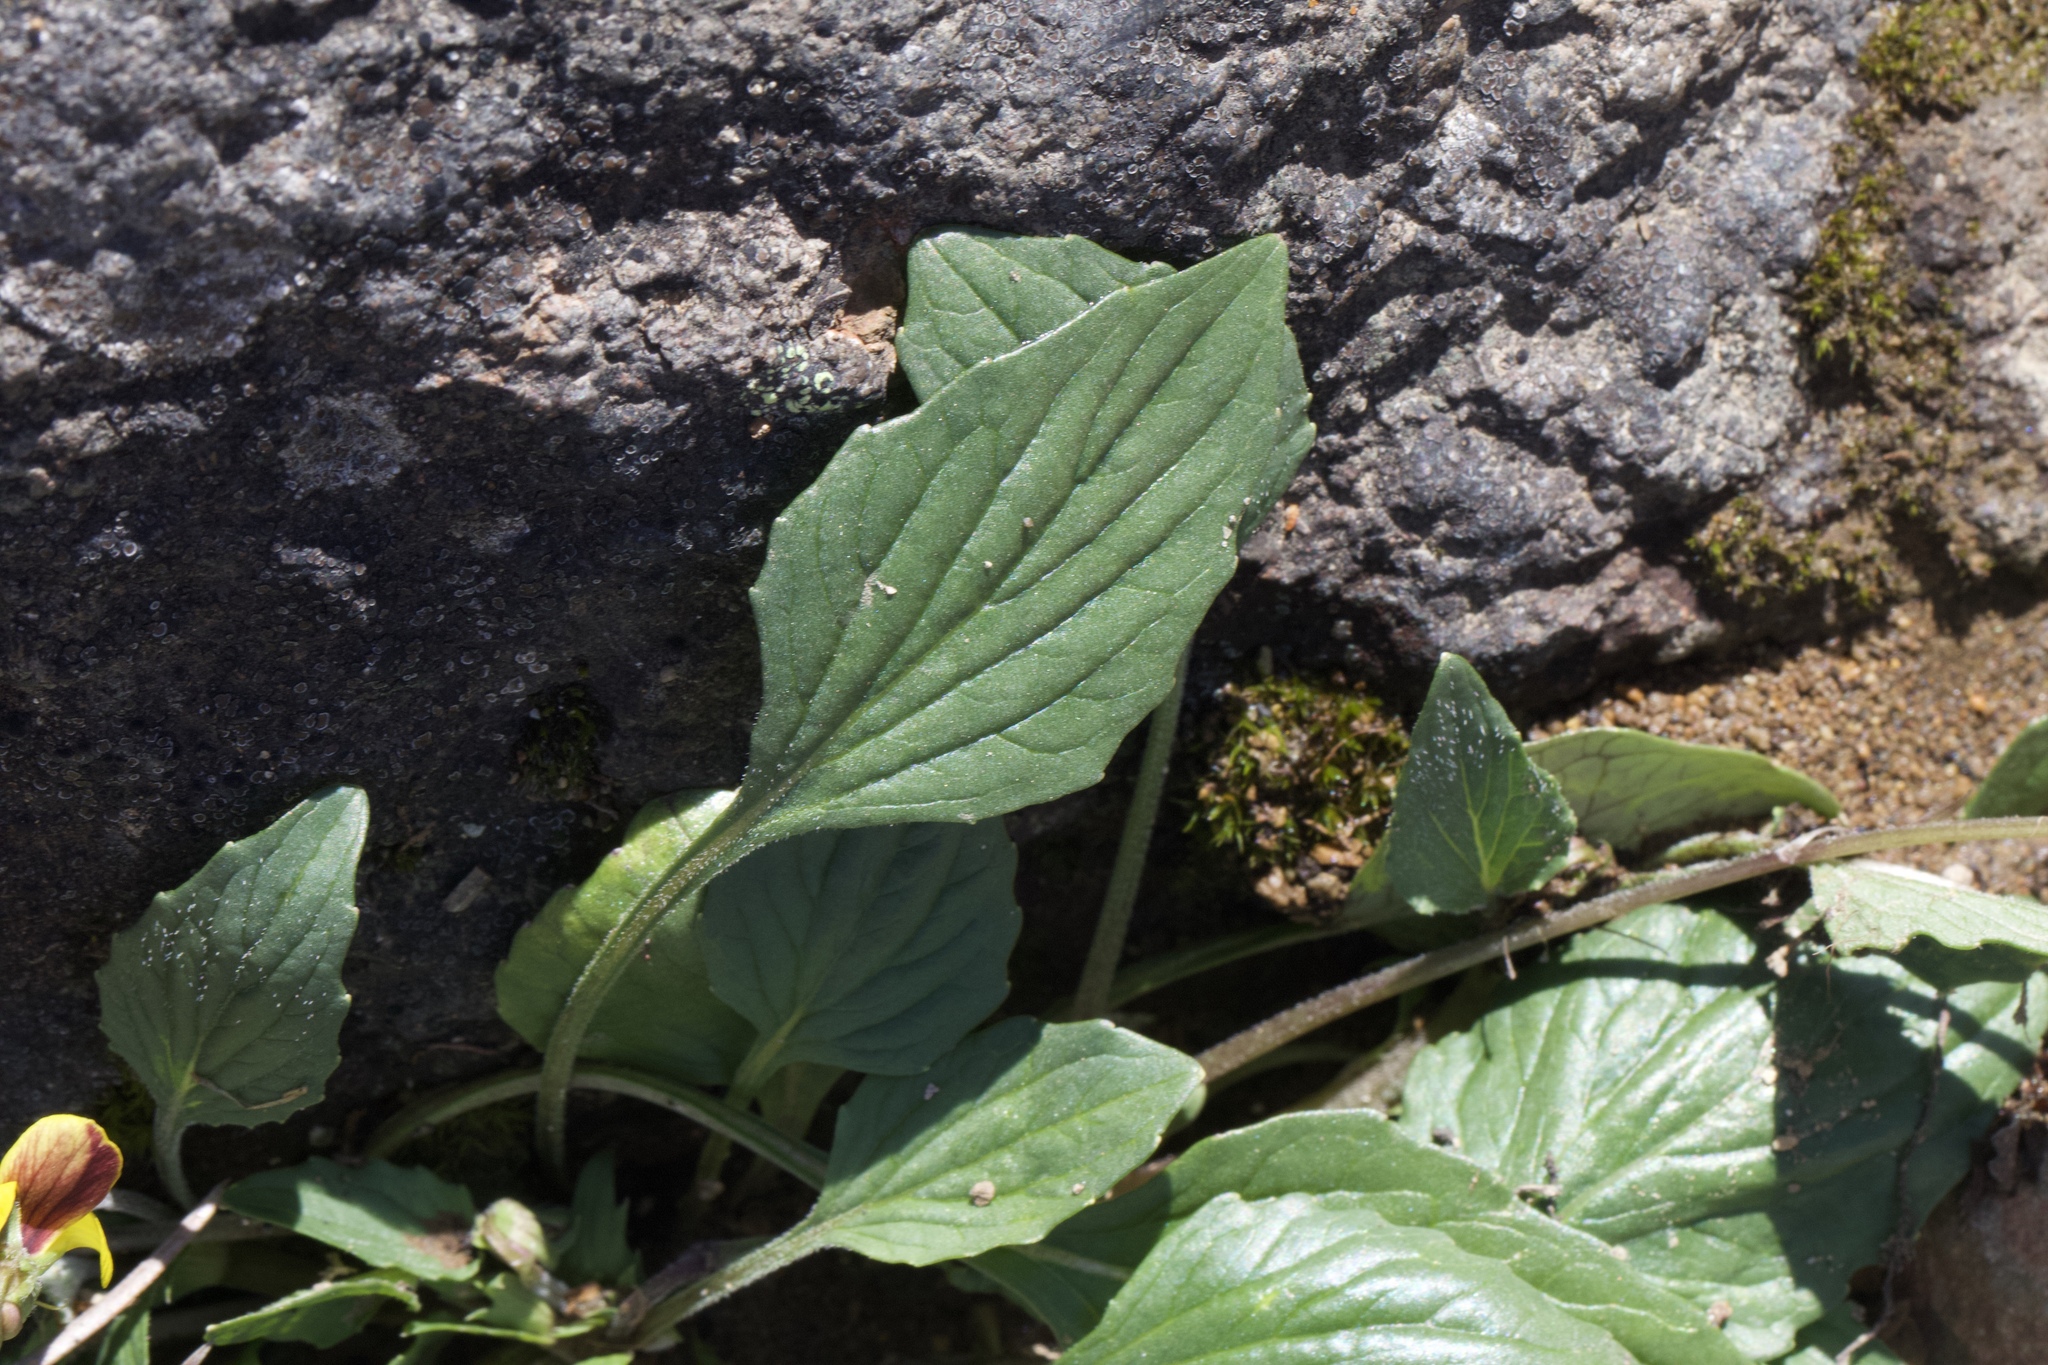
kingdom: Plantae
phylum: Tracheophyta
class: Magnoliopsida
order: Malpighiales
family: Violaceae
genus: Viola
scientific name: Viola purpurea
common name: Pine violet
